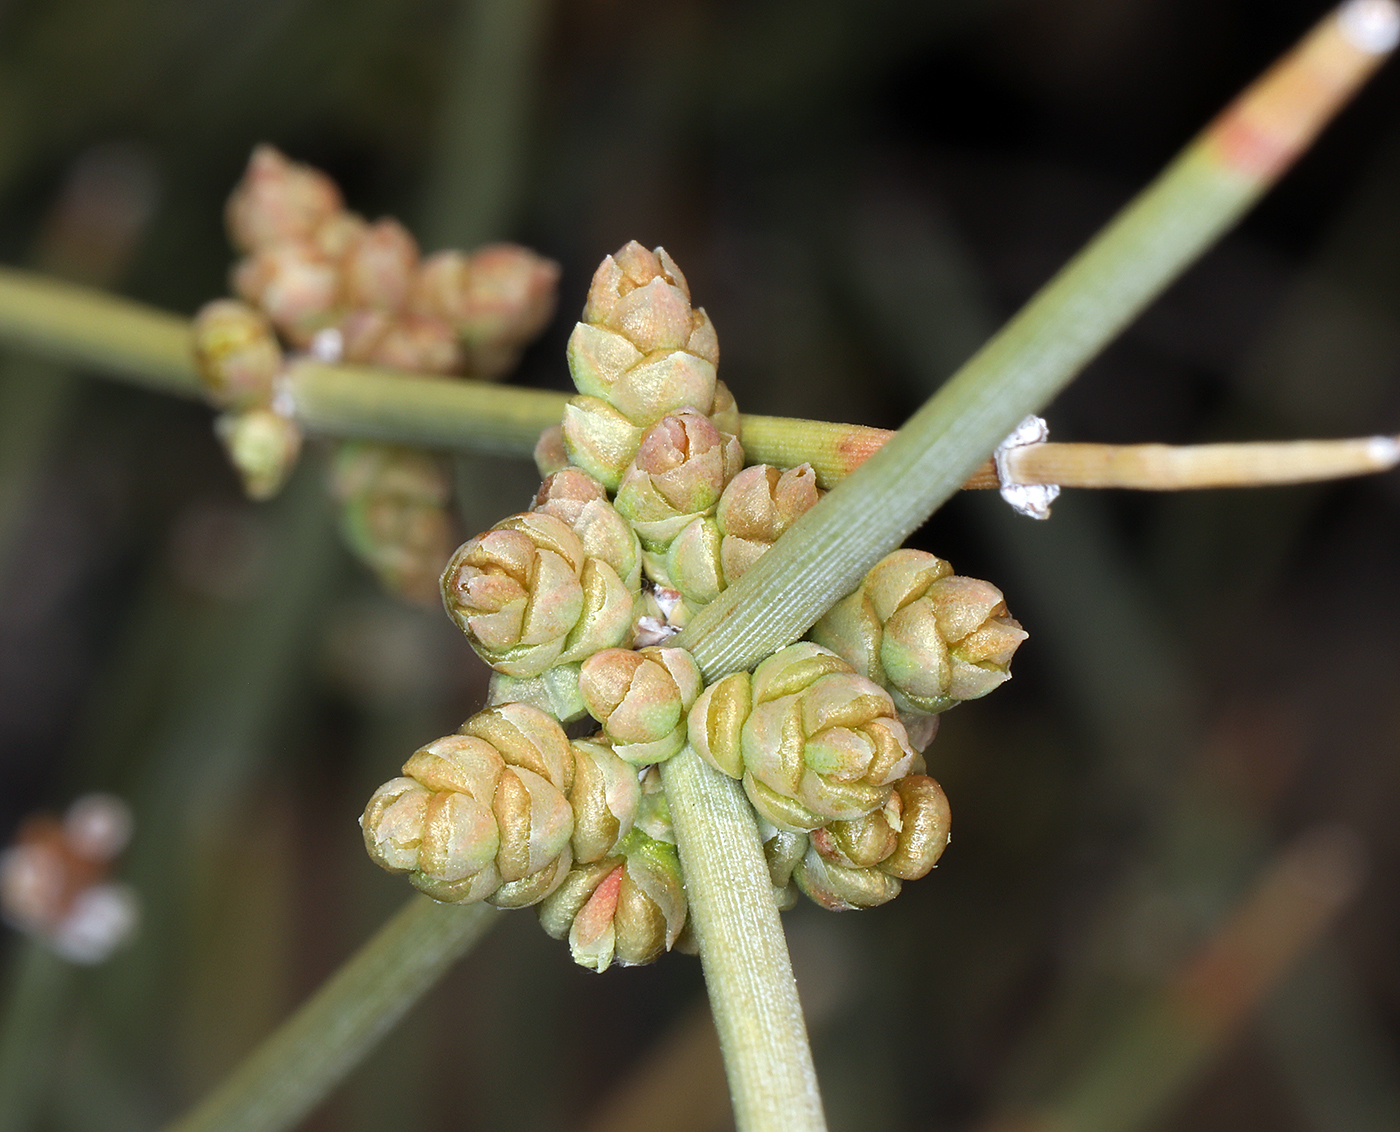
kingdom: Plantae
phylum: Tracheophyta
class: Gnetopsida
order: Ephedrales
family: Ephedraceae
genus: Ephedra
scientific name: Ephedra nevadensis
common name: Gray ephedra
